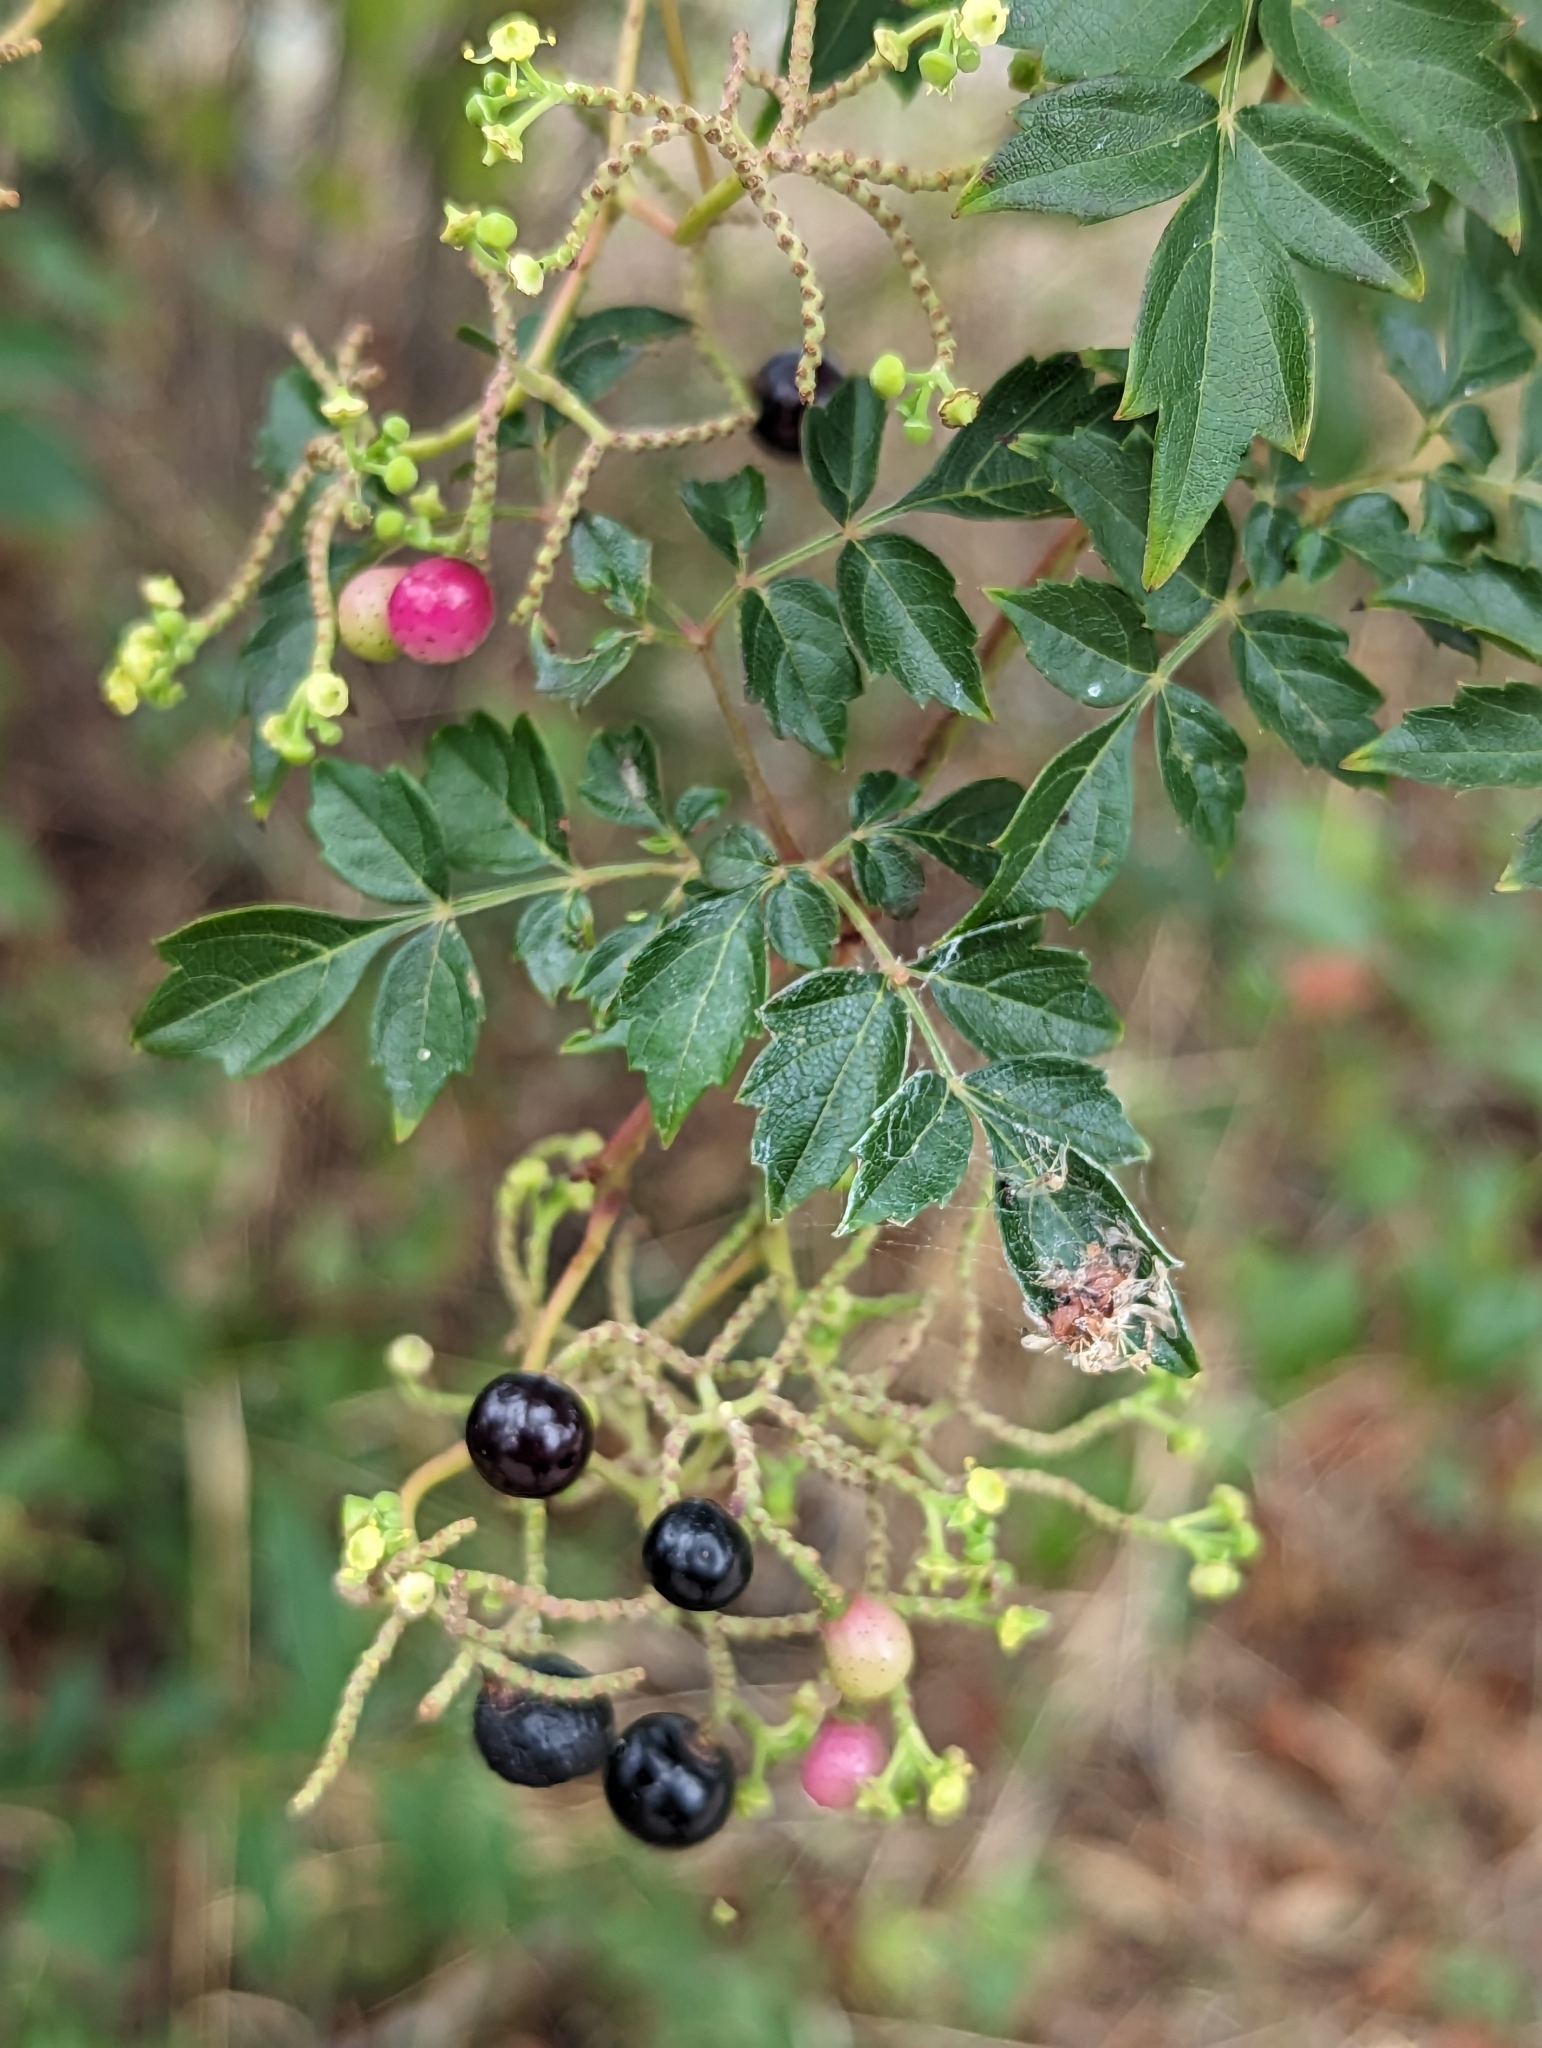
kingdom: Plantae
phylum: Tracheophyta
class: Magnoliopsida
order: Vitales
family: Vitaceae
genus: Nekemias
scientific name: Nekemias arborea
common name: Peppervine
